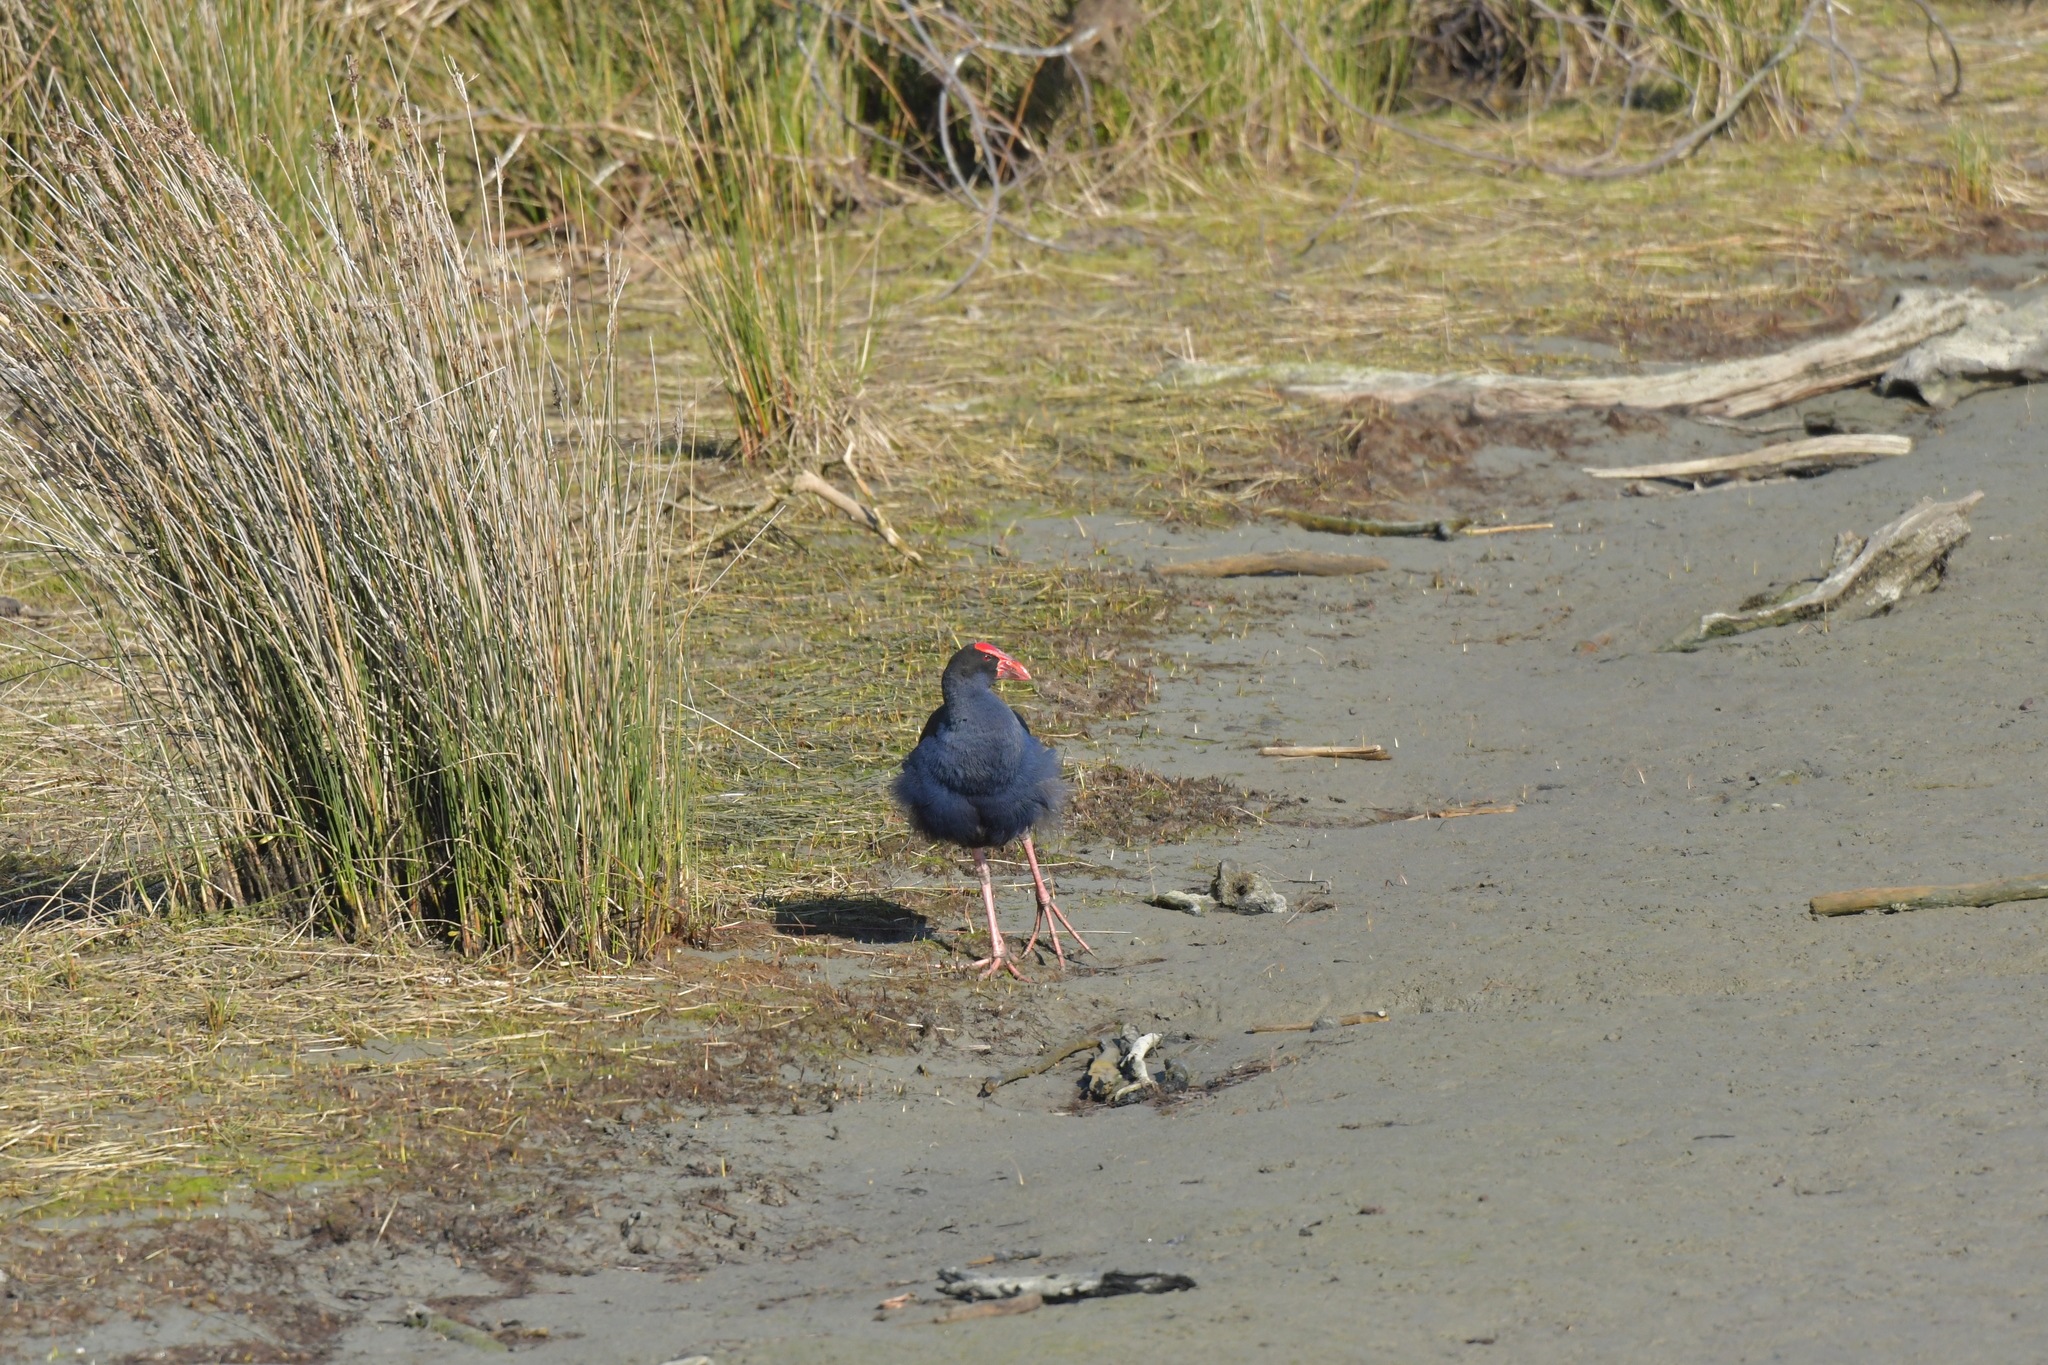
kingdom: Animalia
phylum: Chordata
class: Aves
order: Gruiformes
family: Rallidae
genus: Porphyrio
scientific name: Porphyrio melanotus
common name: Australasian swamphen
